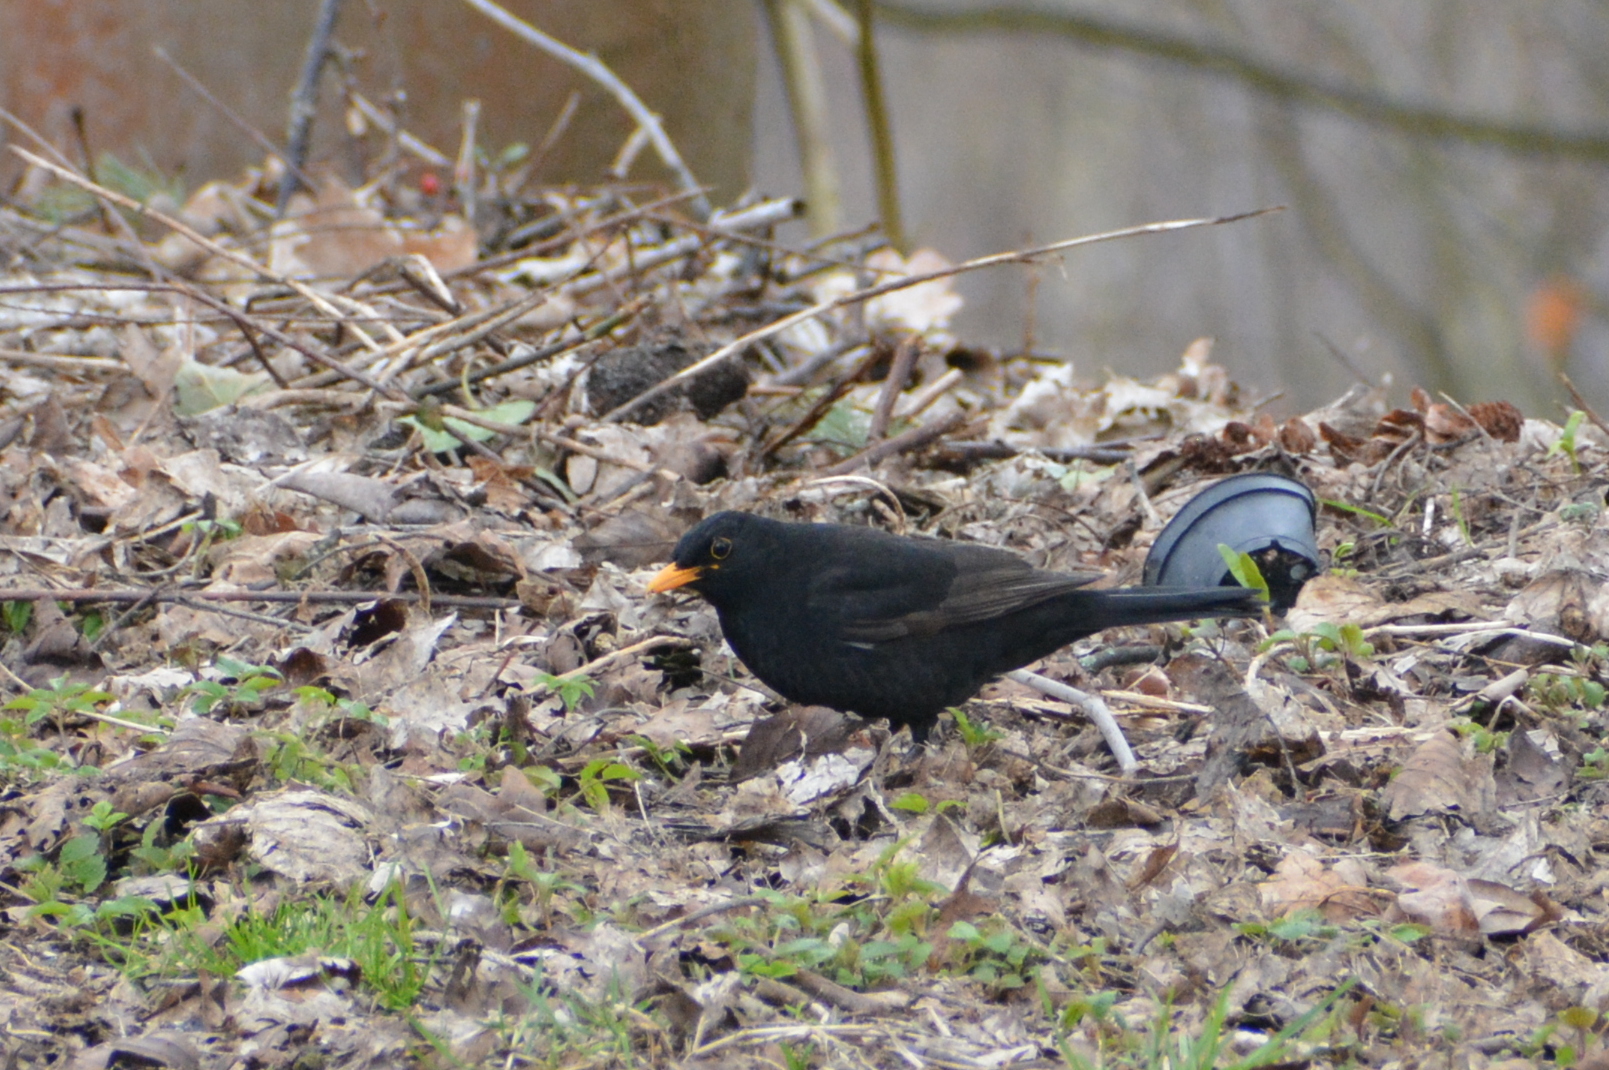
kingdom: Animalia
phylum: Chordata
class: Aves
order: Passeriformes
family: Turdidae
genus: Turdus
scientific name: Turdus merula
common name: Common blackbird
